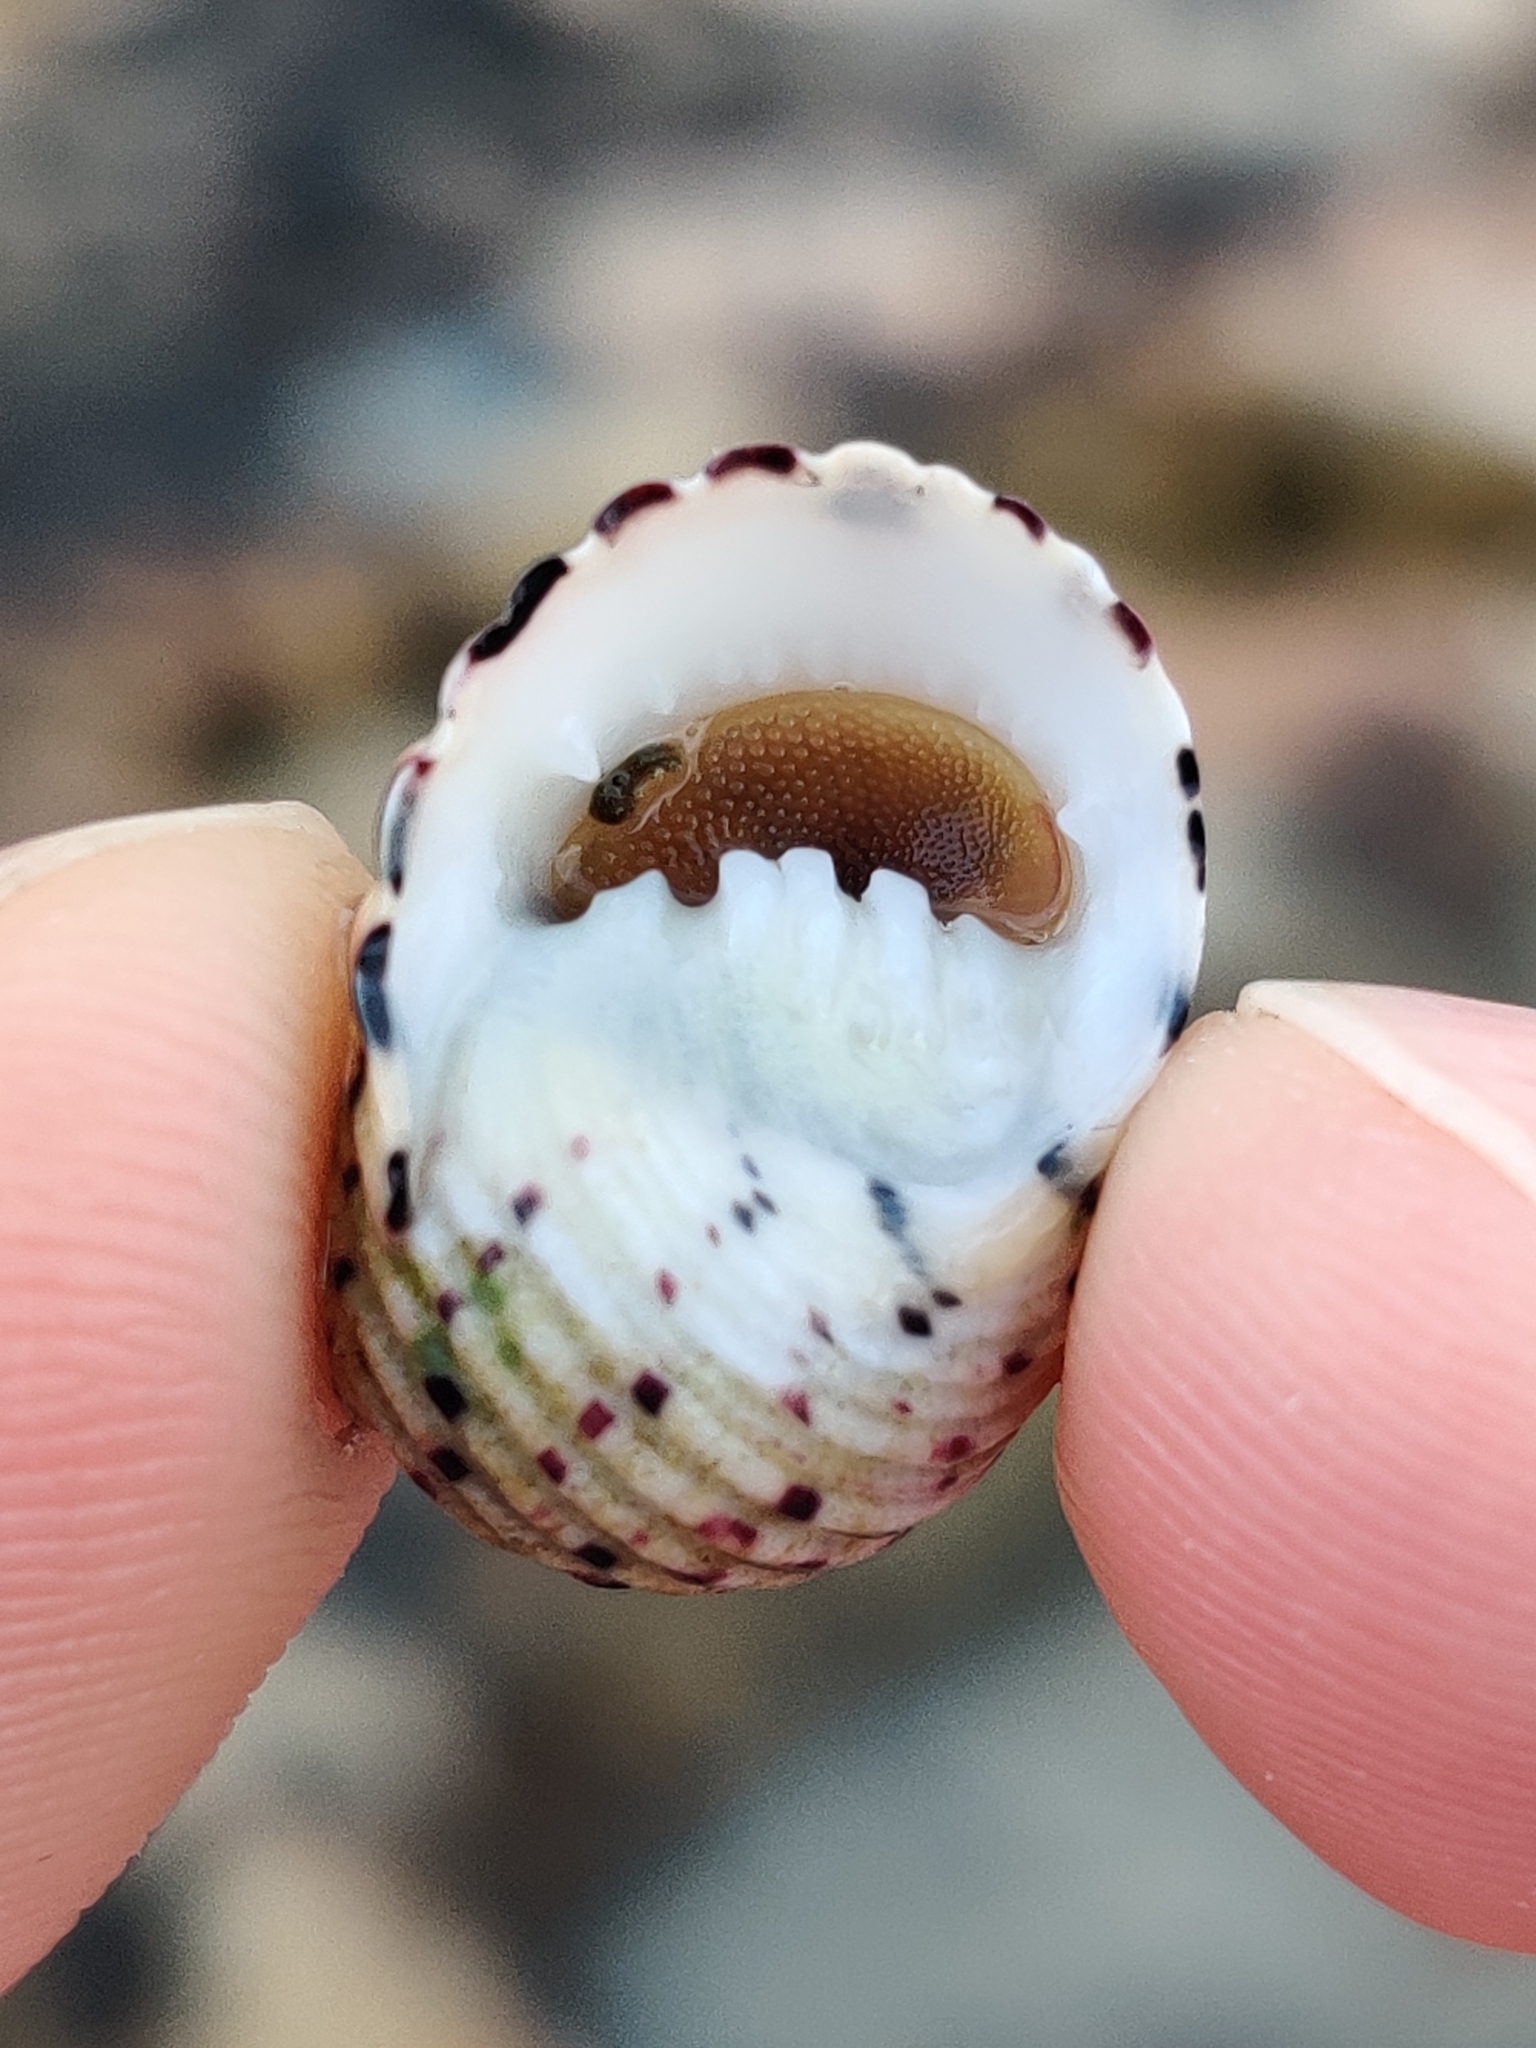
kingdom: Animalia
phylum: Mollusca
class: Gastropoda
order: Cycloneritida
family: Neritidae
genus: Nerita
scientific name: Nerita versicolor
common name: Four-tooth nerite
